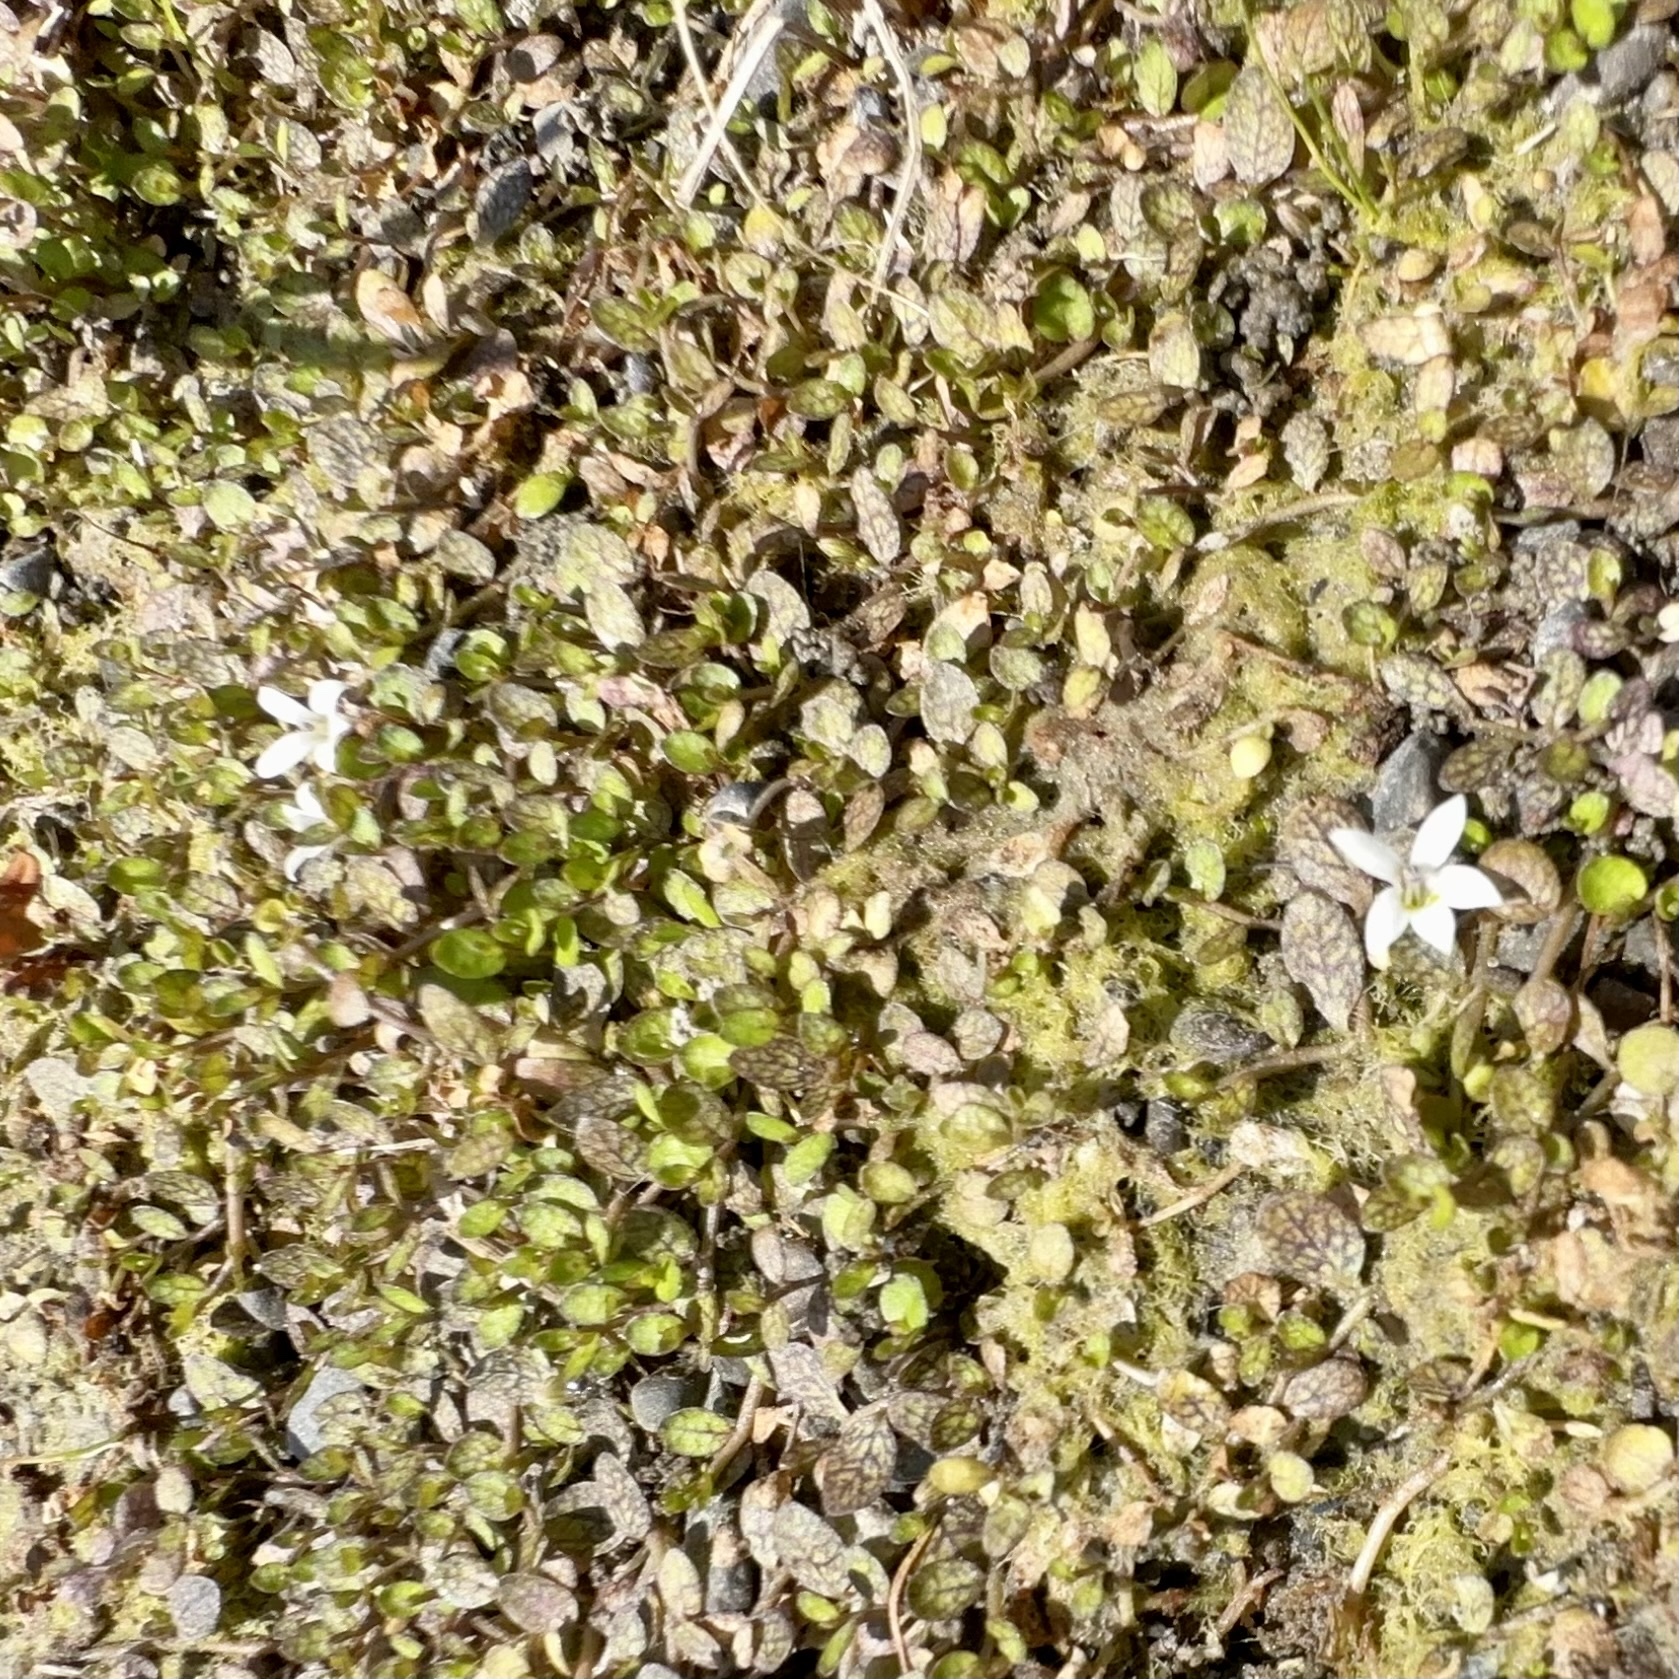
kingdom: Plantae
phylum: Tracheophyta
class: Magnoliopsida
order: Asterales
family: Campanulaceae
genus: Lobelia
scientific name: Lobelia perpusilla
